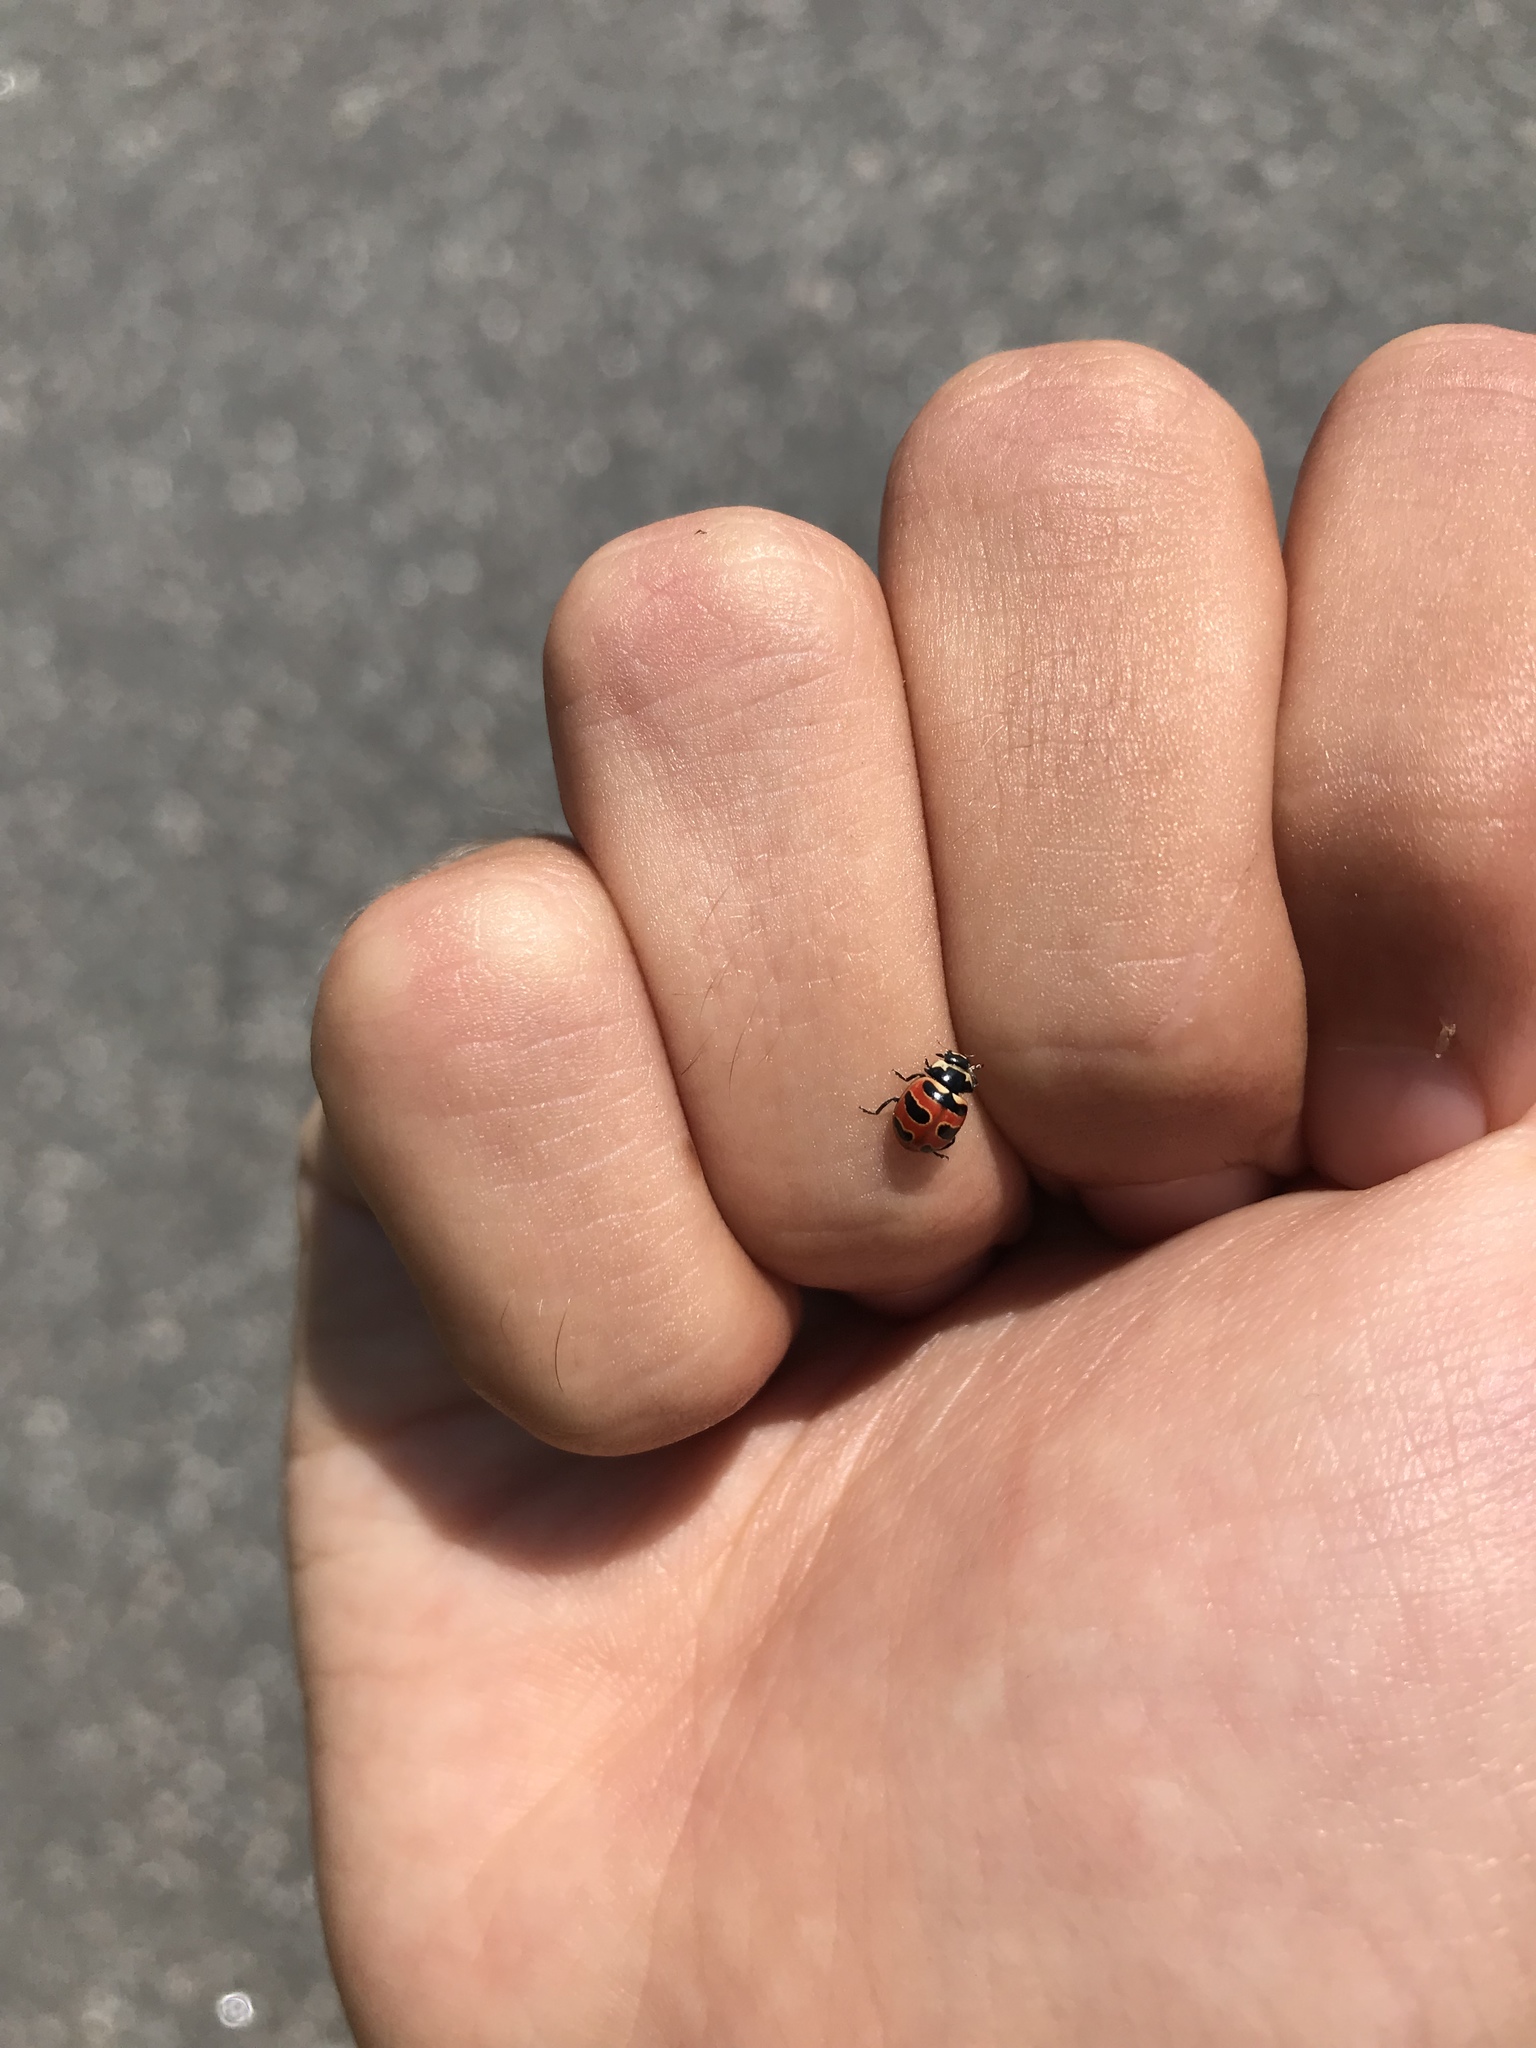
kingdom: Animalia
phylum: Arthropoda
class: Insecta
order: Coleoptera
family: Coccinellidae
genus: Coccinella
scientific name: Coccinella trifasciata
